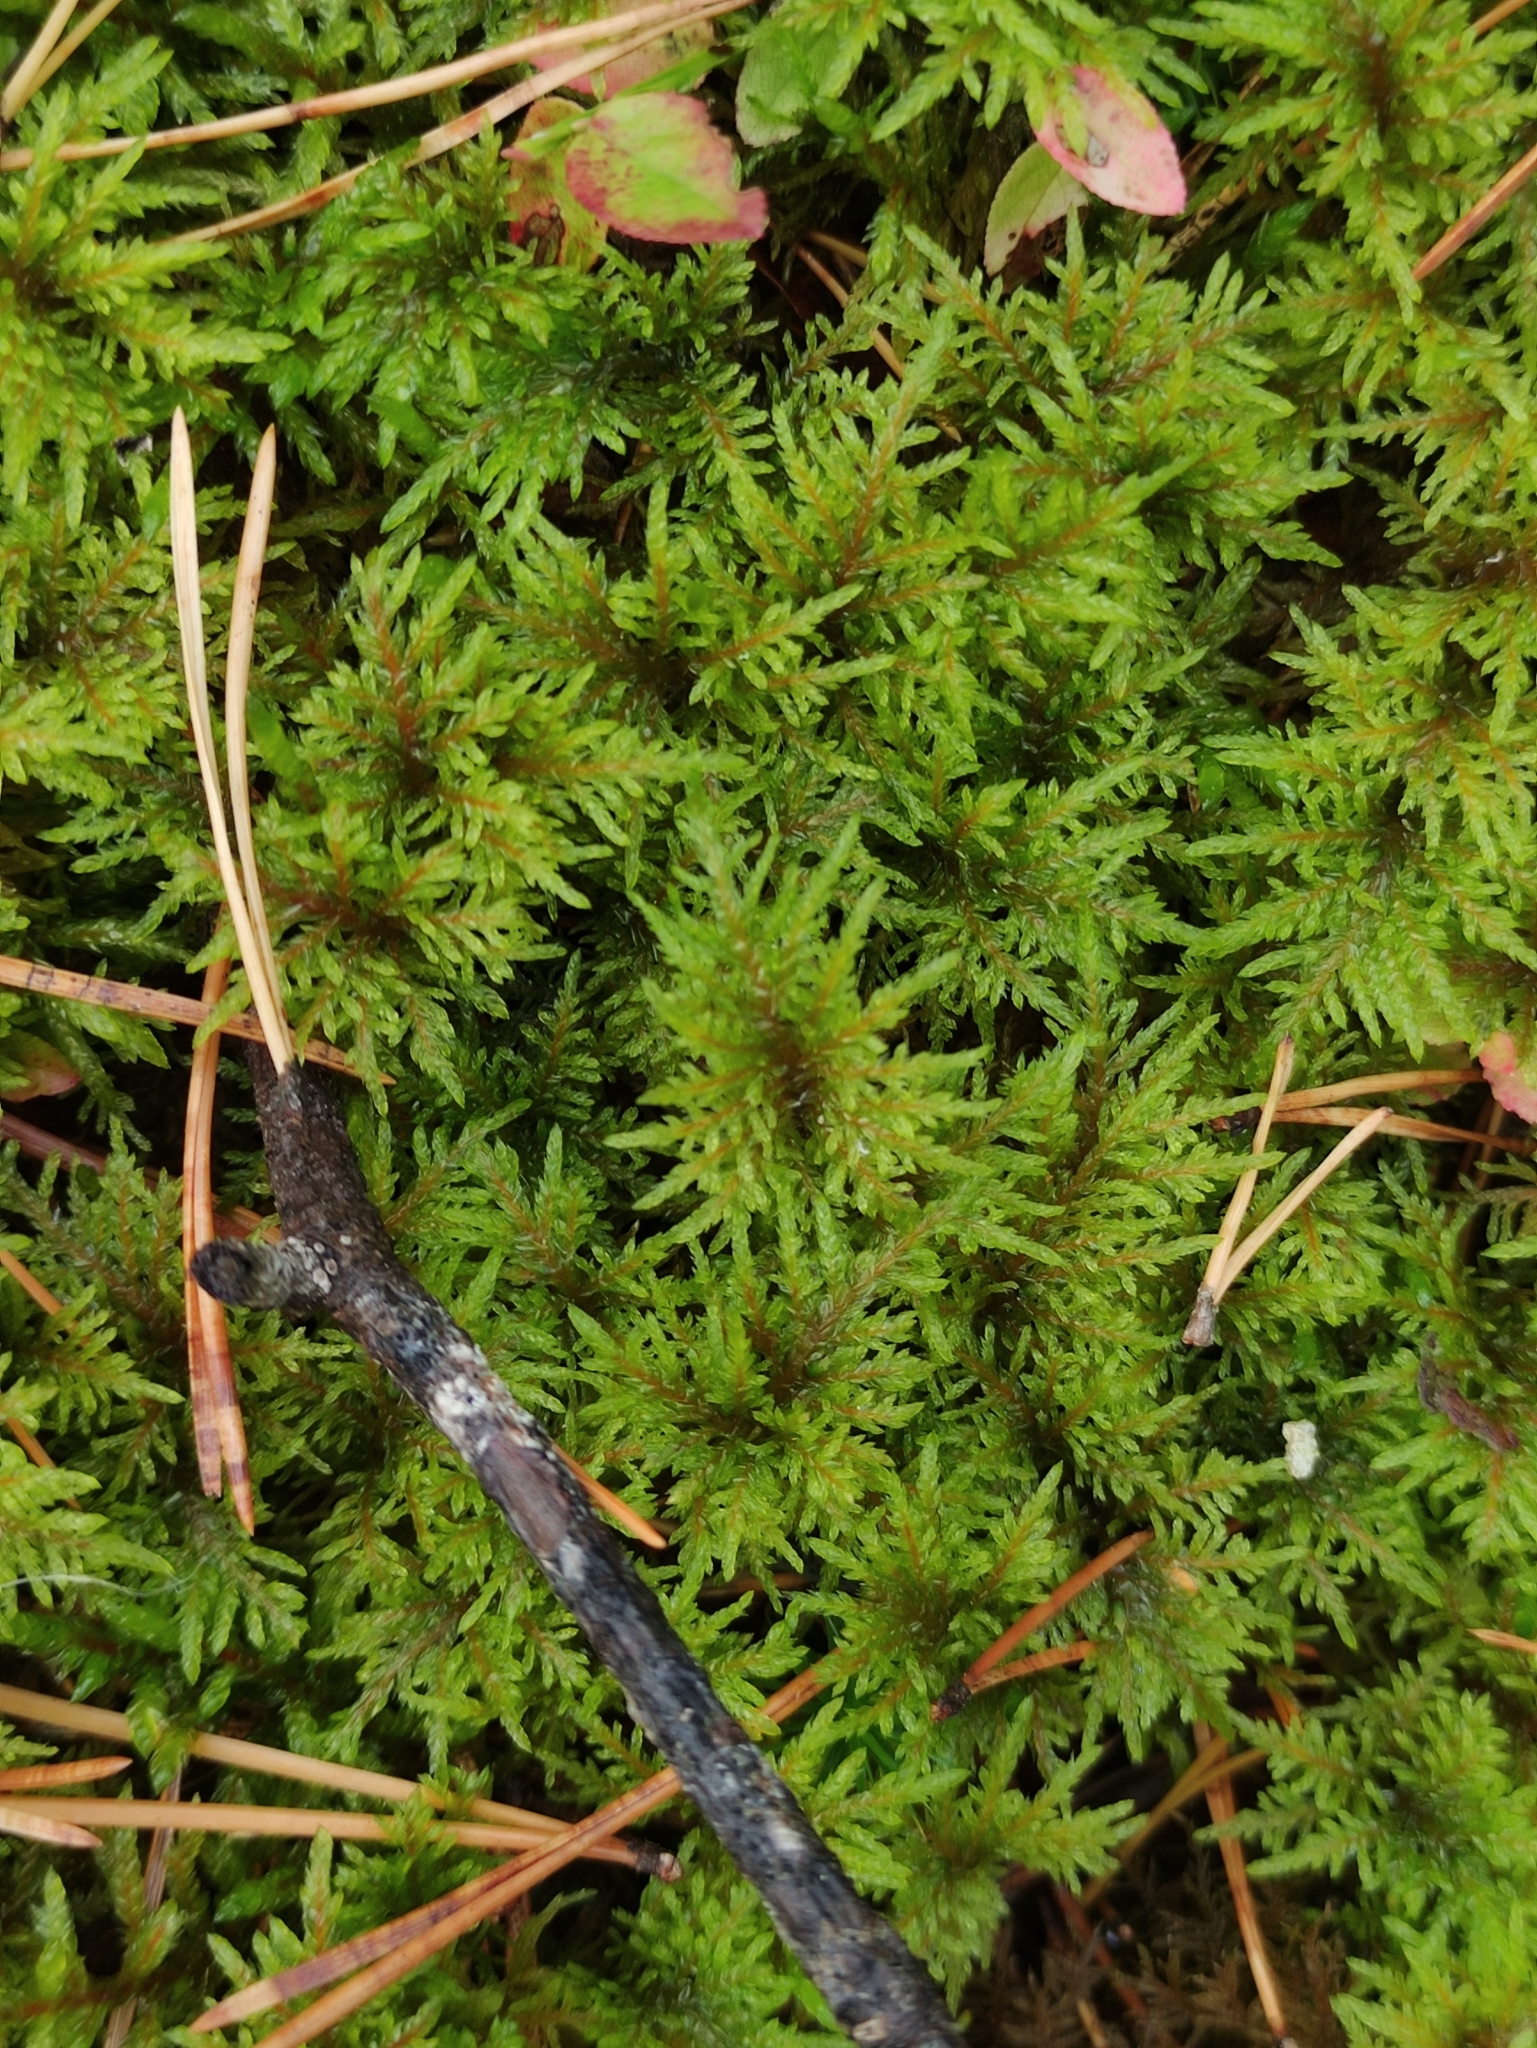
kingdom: Plantae
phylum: Bryophyta
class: Bryopsida
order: Hypnales
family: Hylocomiaceae
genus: Hylocomium
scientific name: Hylocomium splendens
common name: Stairstep moss
